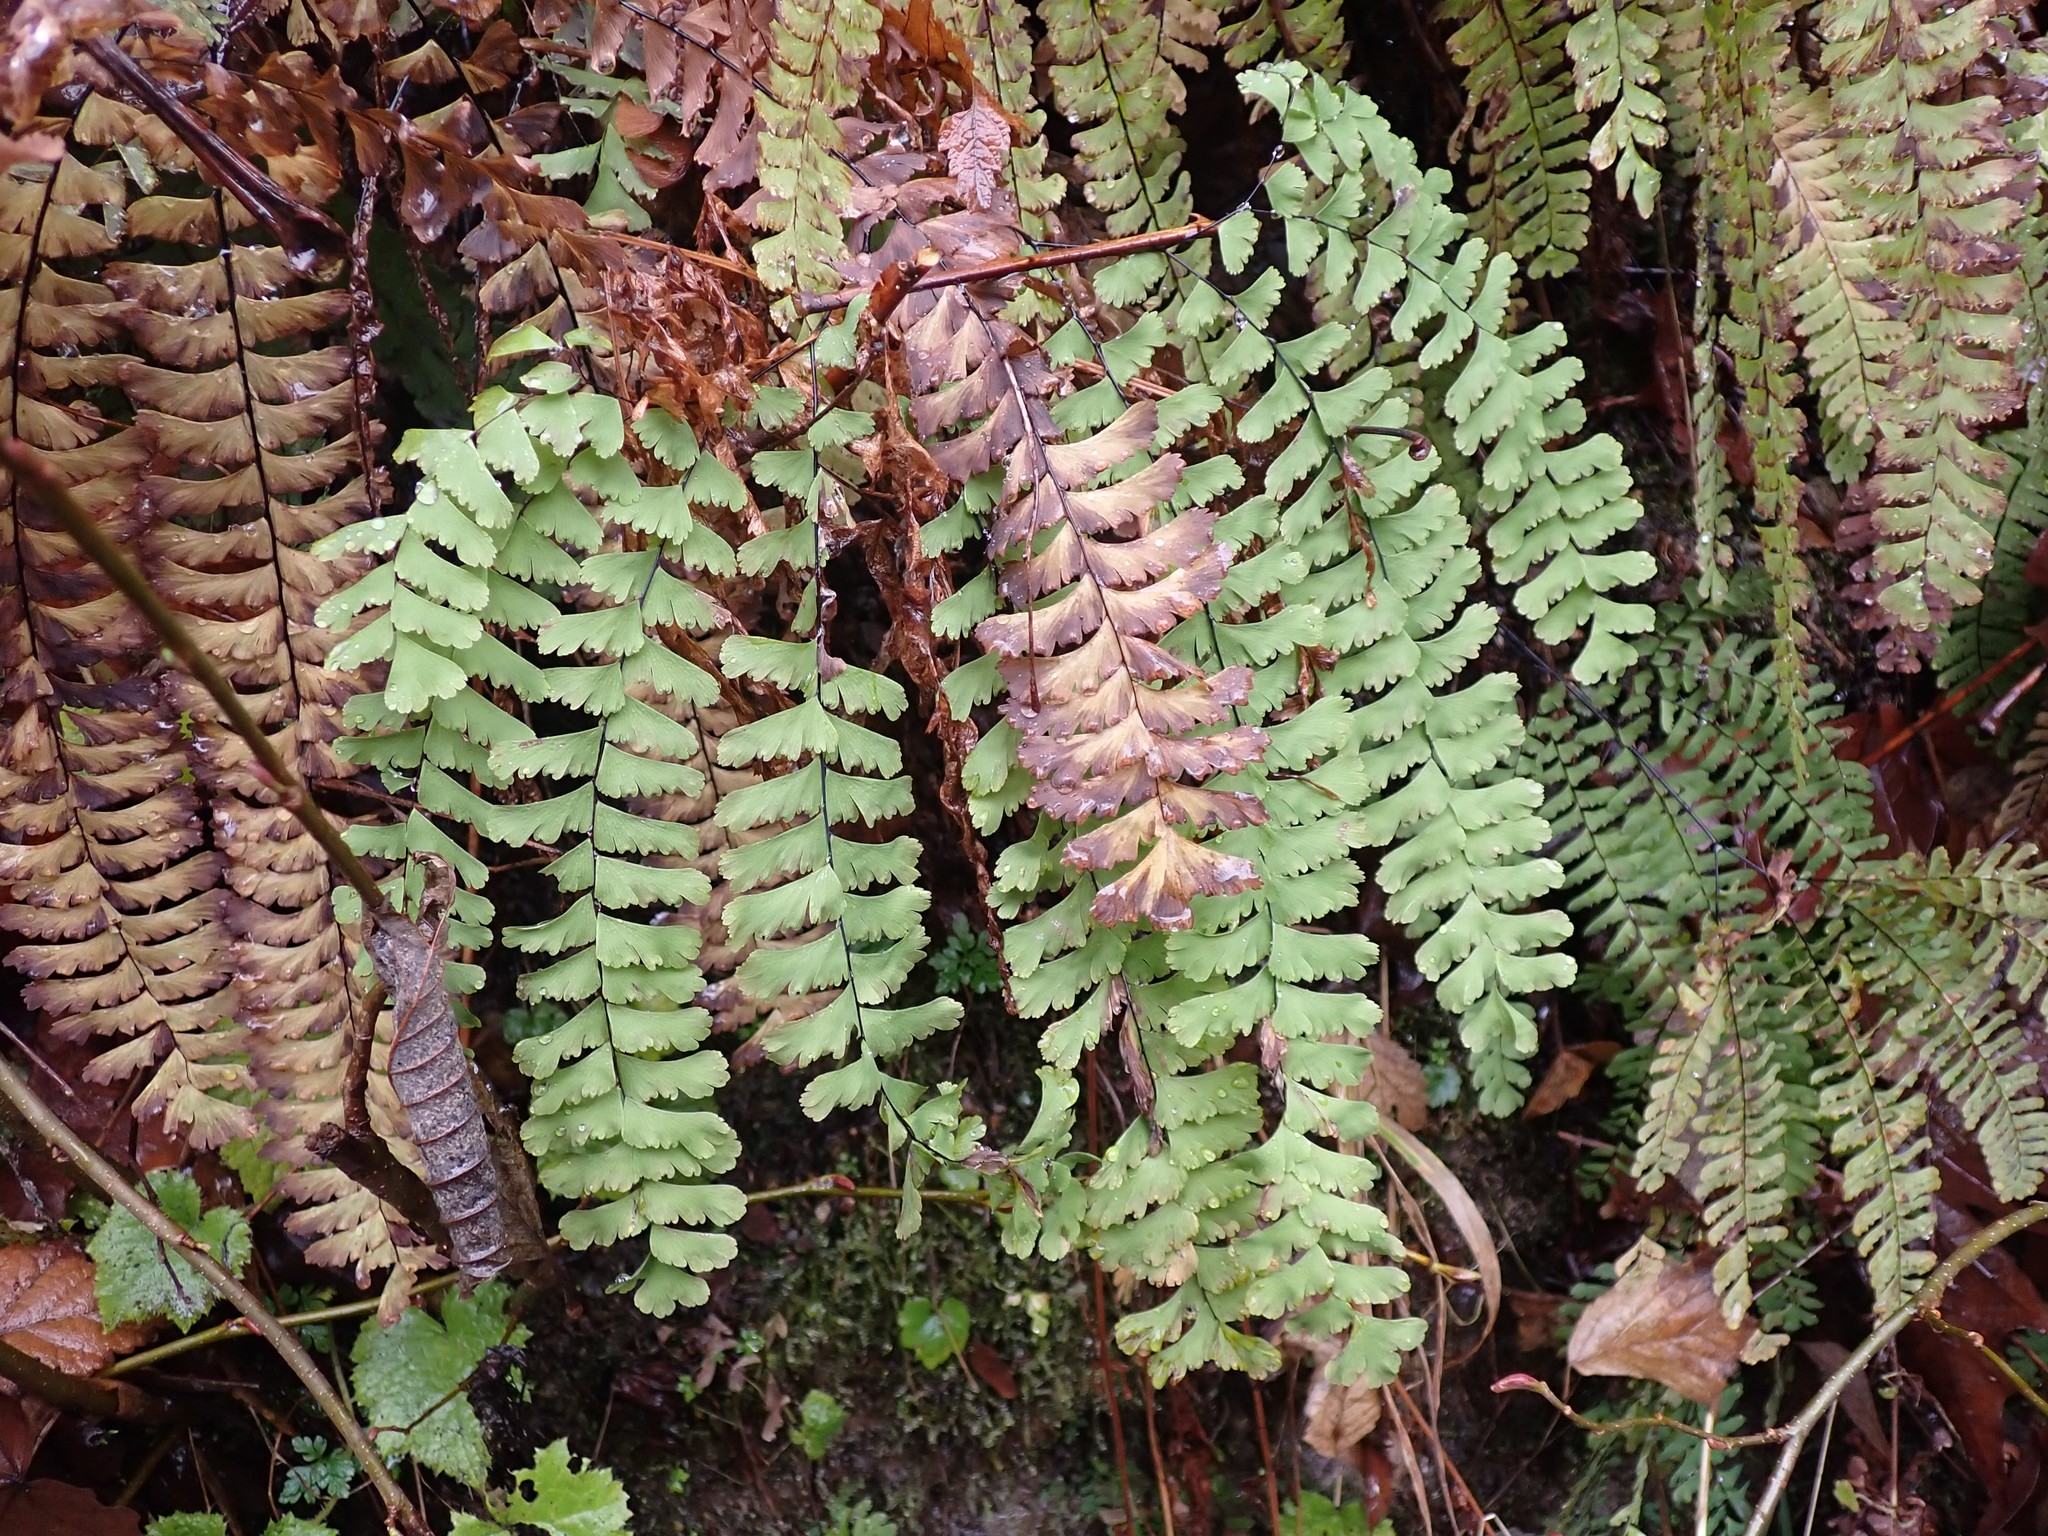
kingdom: Plantae
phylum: Tracheophyta
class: Polypodiopsida
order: Polypodiales
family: Pteridaceae
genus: Adiantum
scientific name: Adiantum aleuticum
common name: Aleutian maidenhair fern
